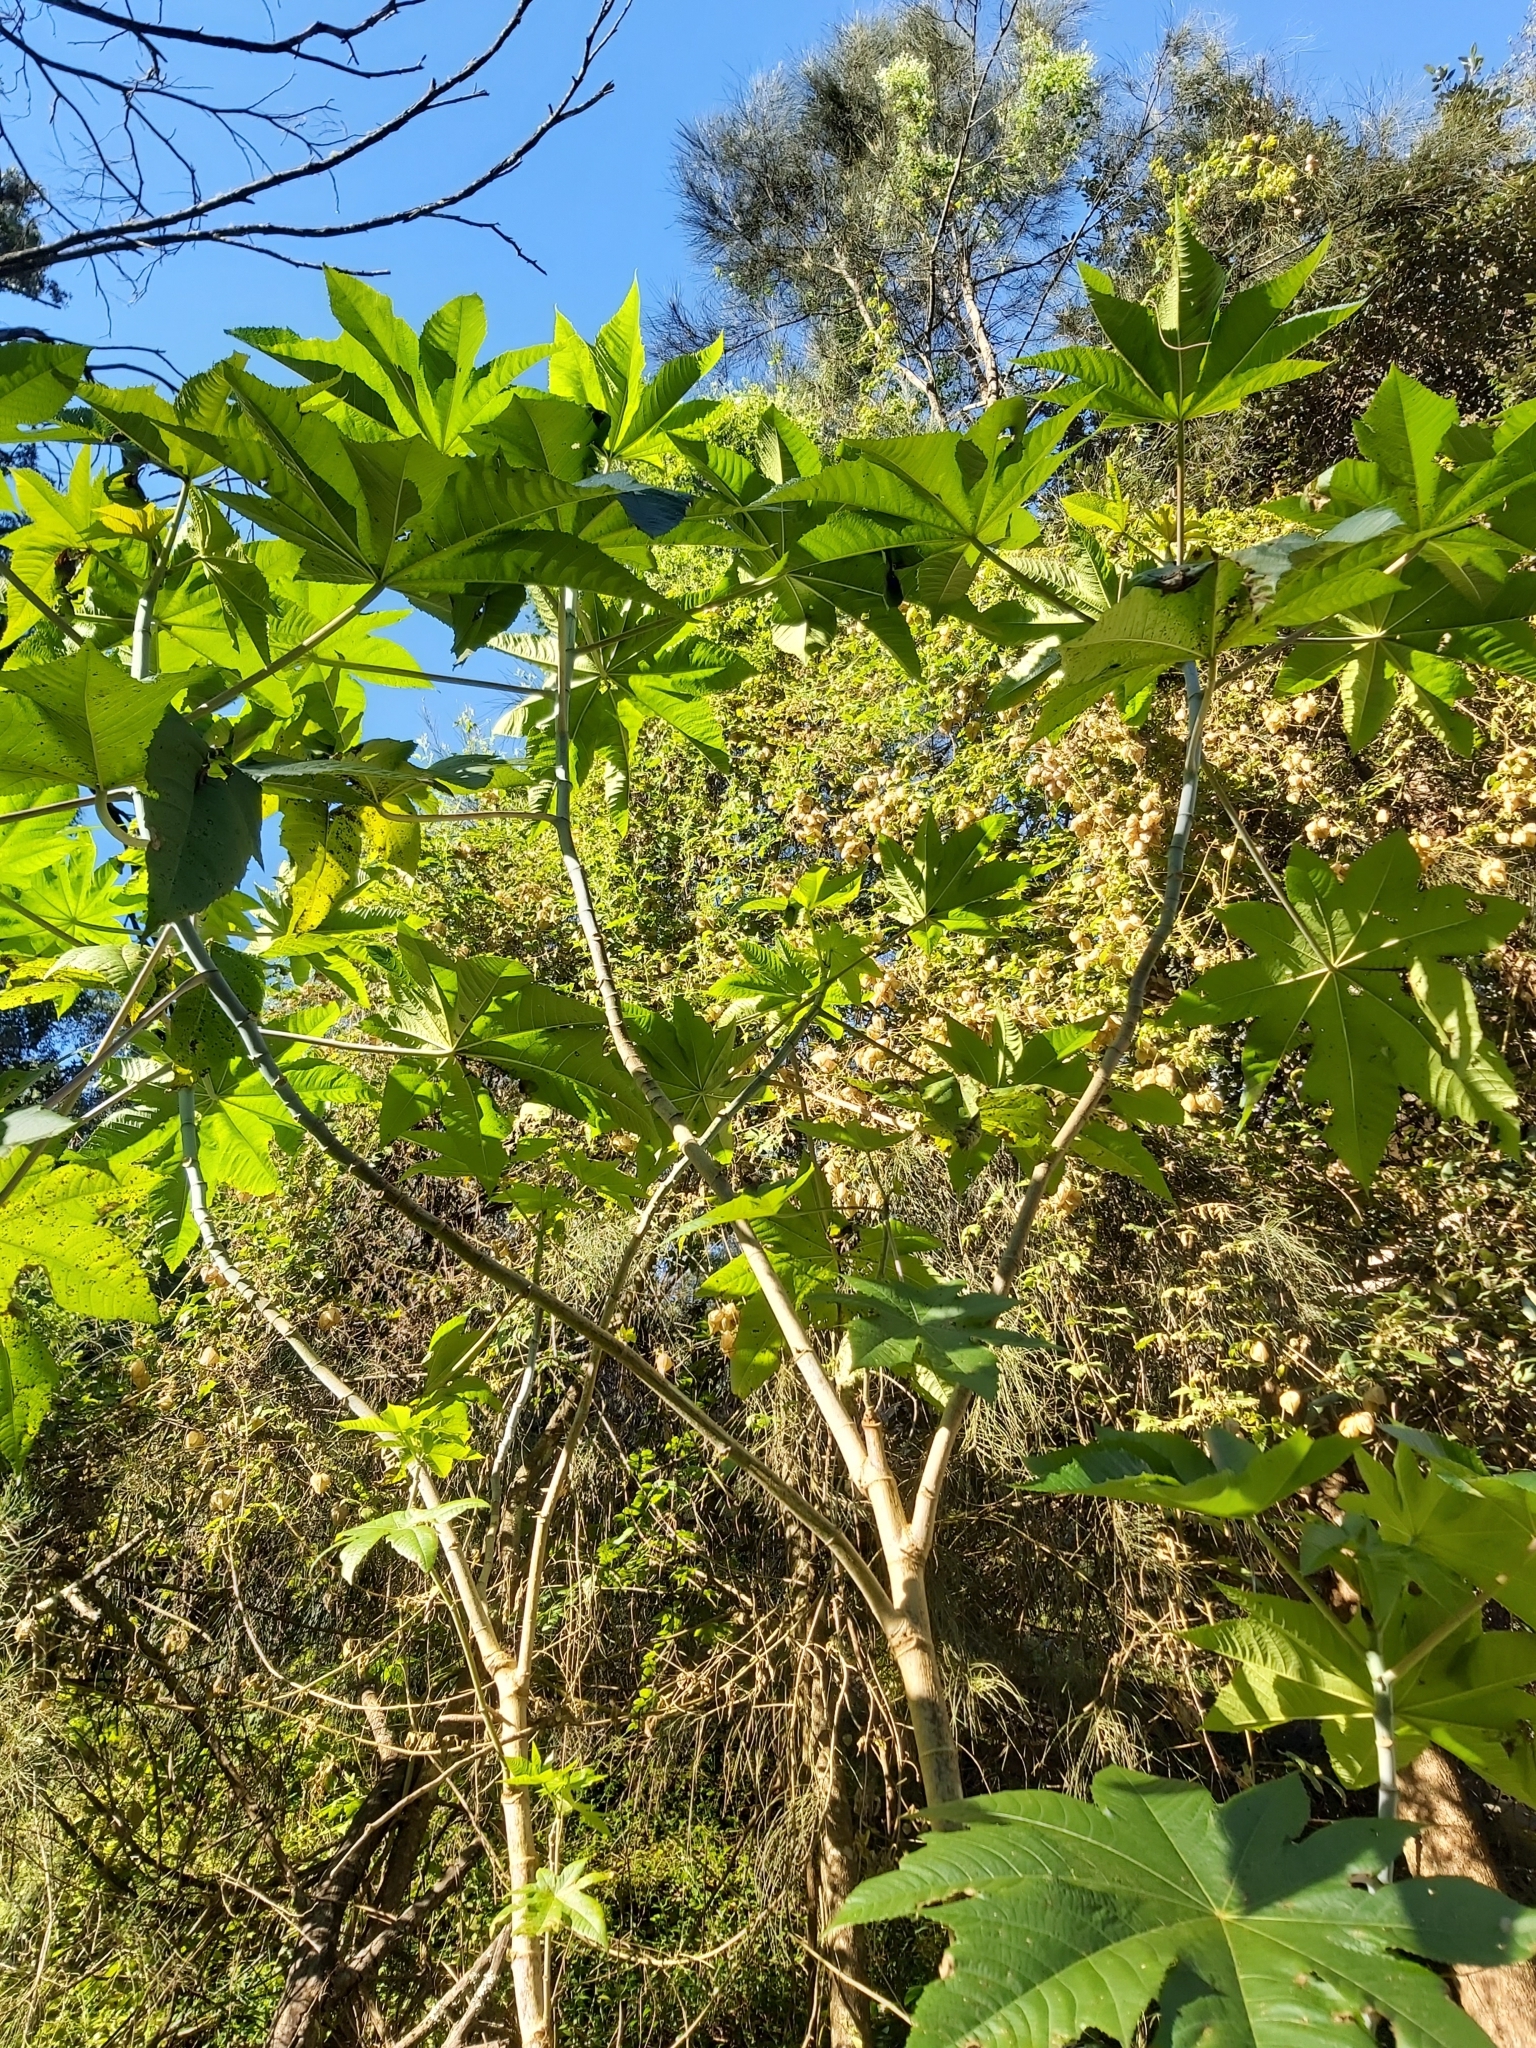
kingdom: Plantae
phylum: Tracheophyta
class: Magnoliopsida
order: Malpighiales
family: Euphorbiaceae
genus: Ricinus
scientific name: Ricinus communis
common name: Castor-oil-plant
